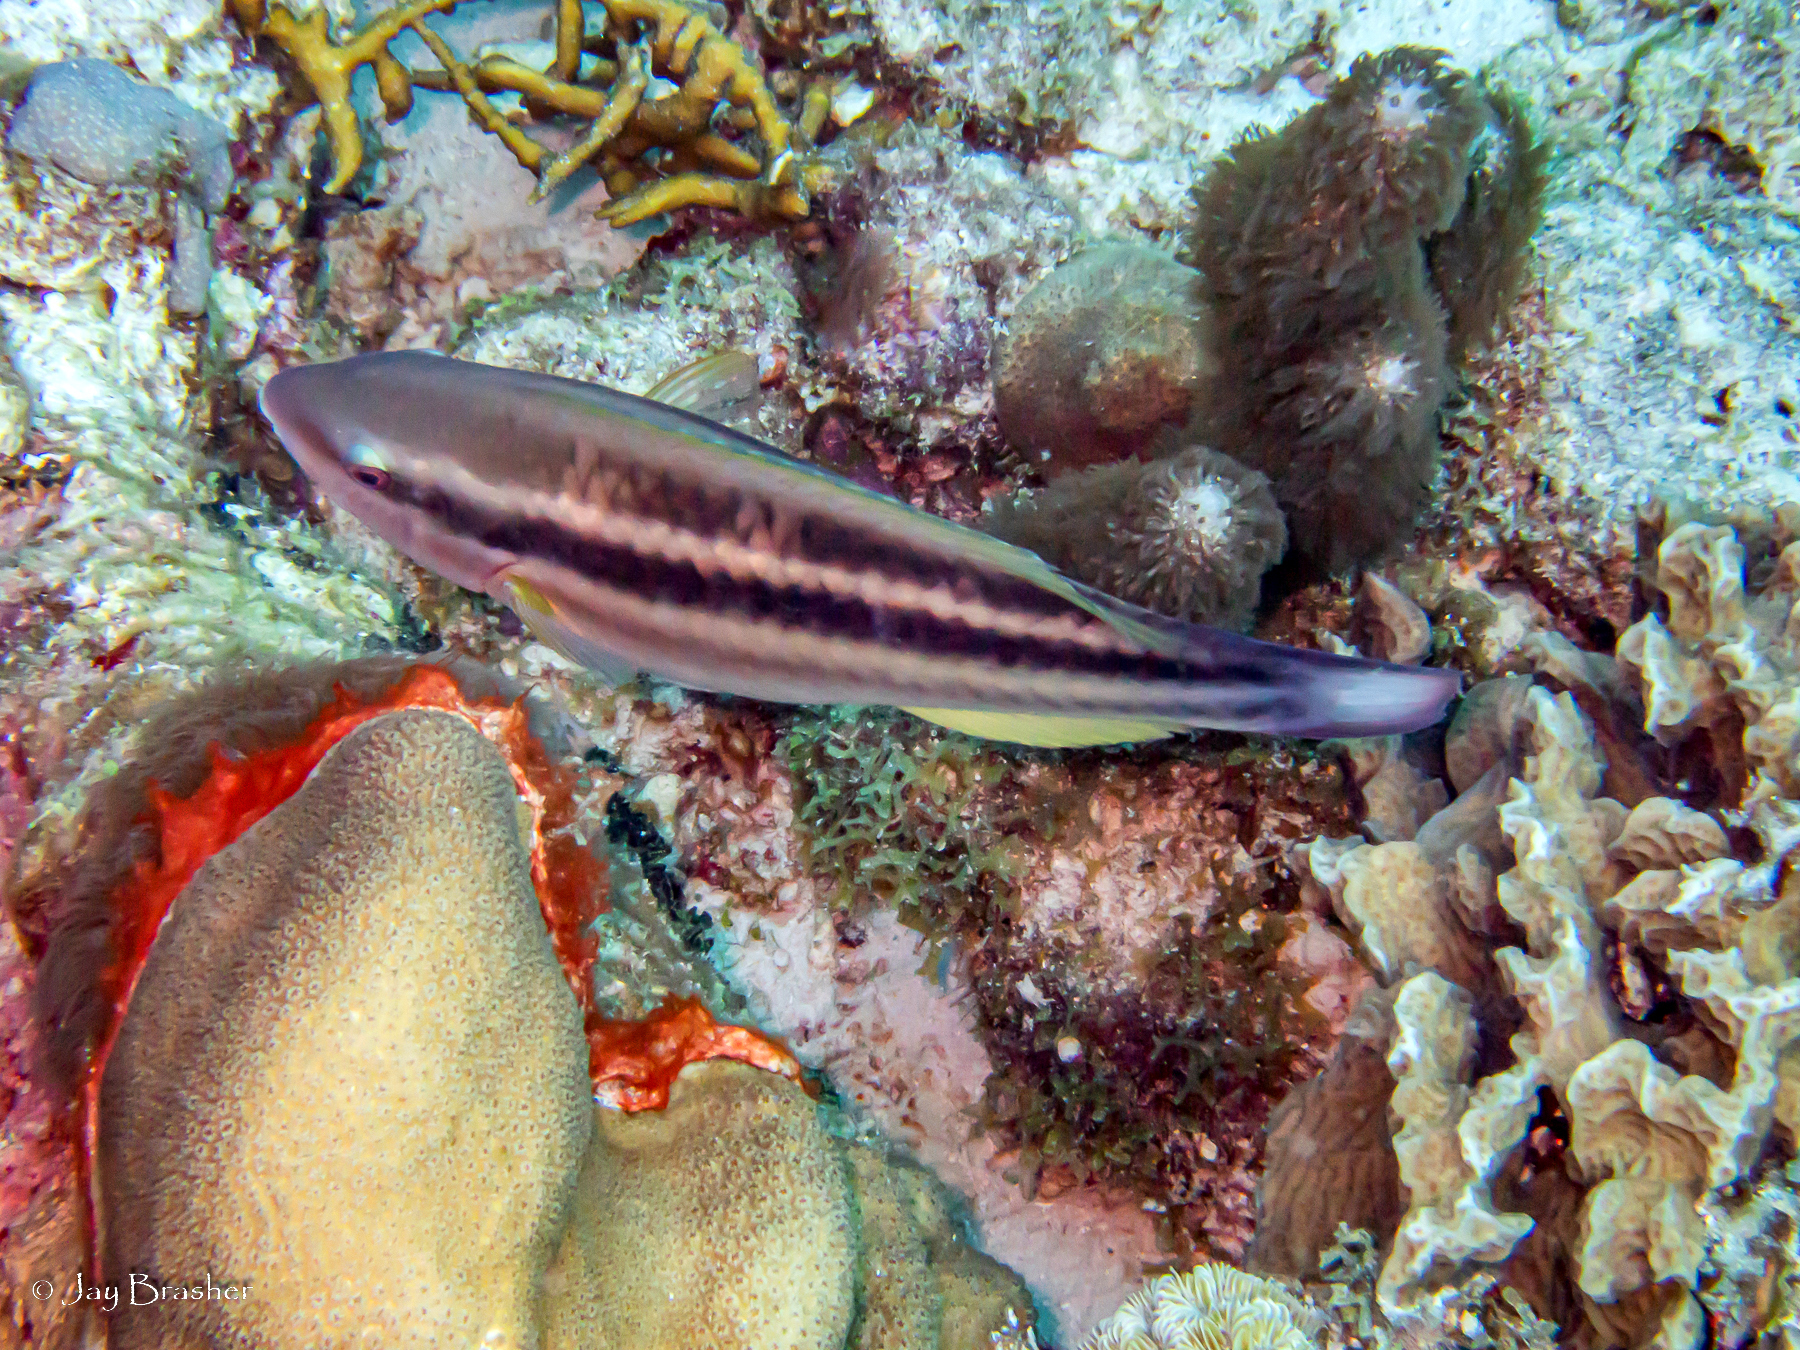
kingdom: Animalia
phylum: Cnidaria
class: Anthozoa
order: Scleralcyonacea
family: Briareidae
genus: Briareum
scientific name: Briareum asbestinum
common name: Corky sea finger
